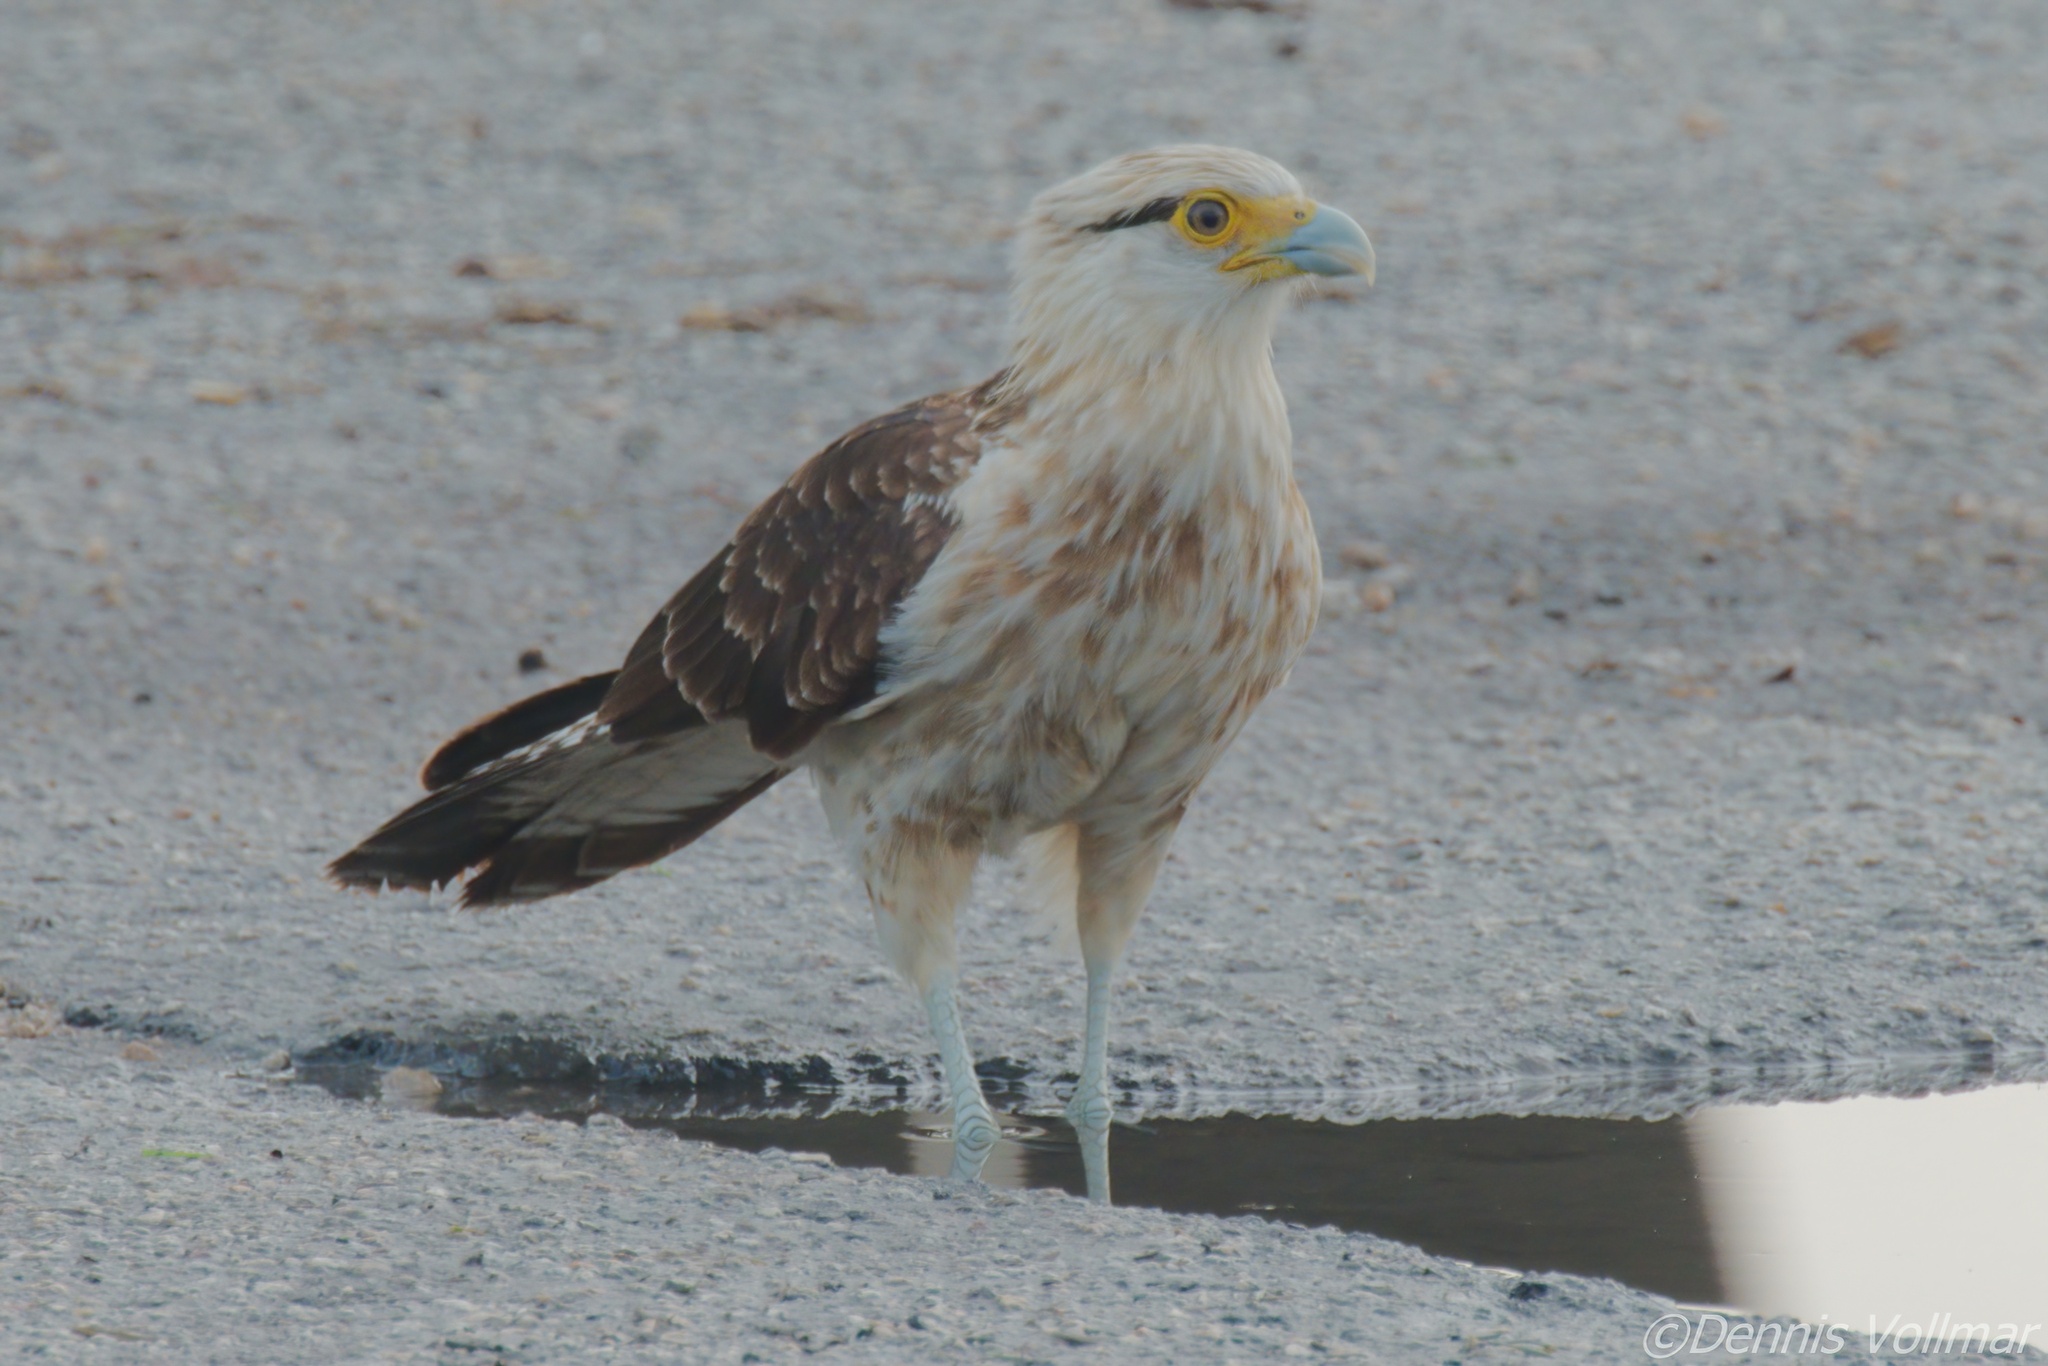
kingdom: Animalia
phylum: Chordata
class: Aves
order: Falconiformes
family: Falconidae
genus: Daptrius
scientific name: Daptrius
